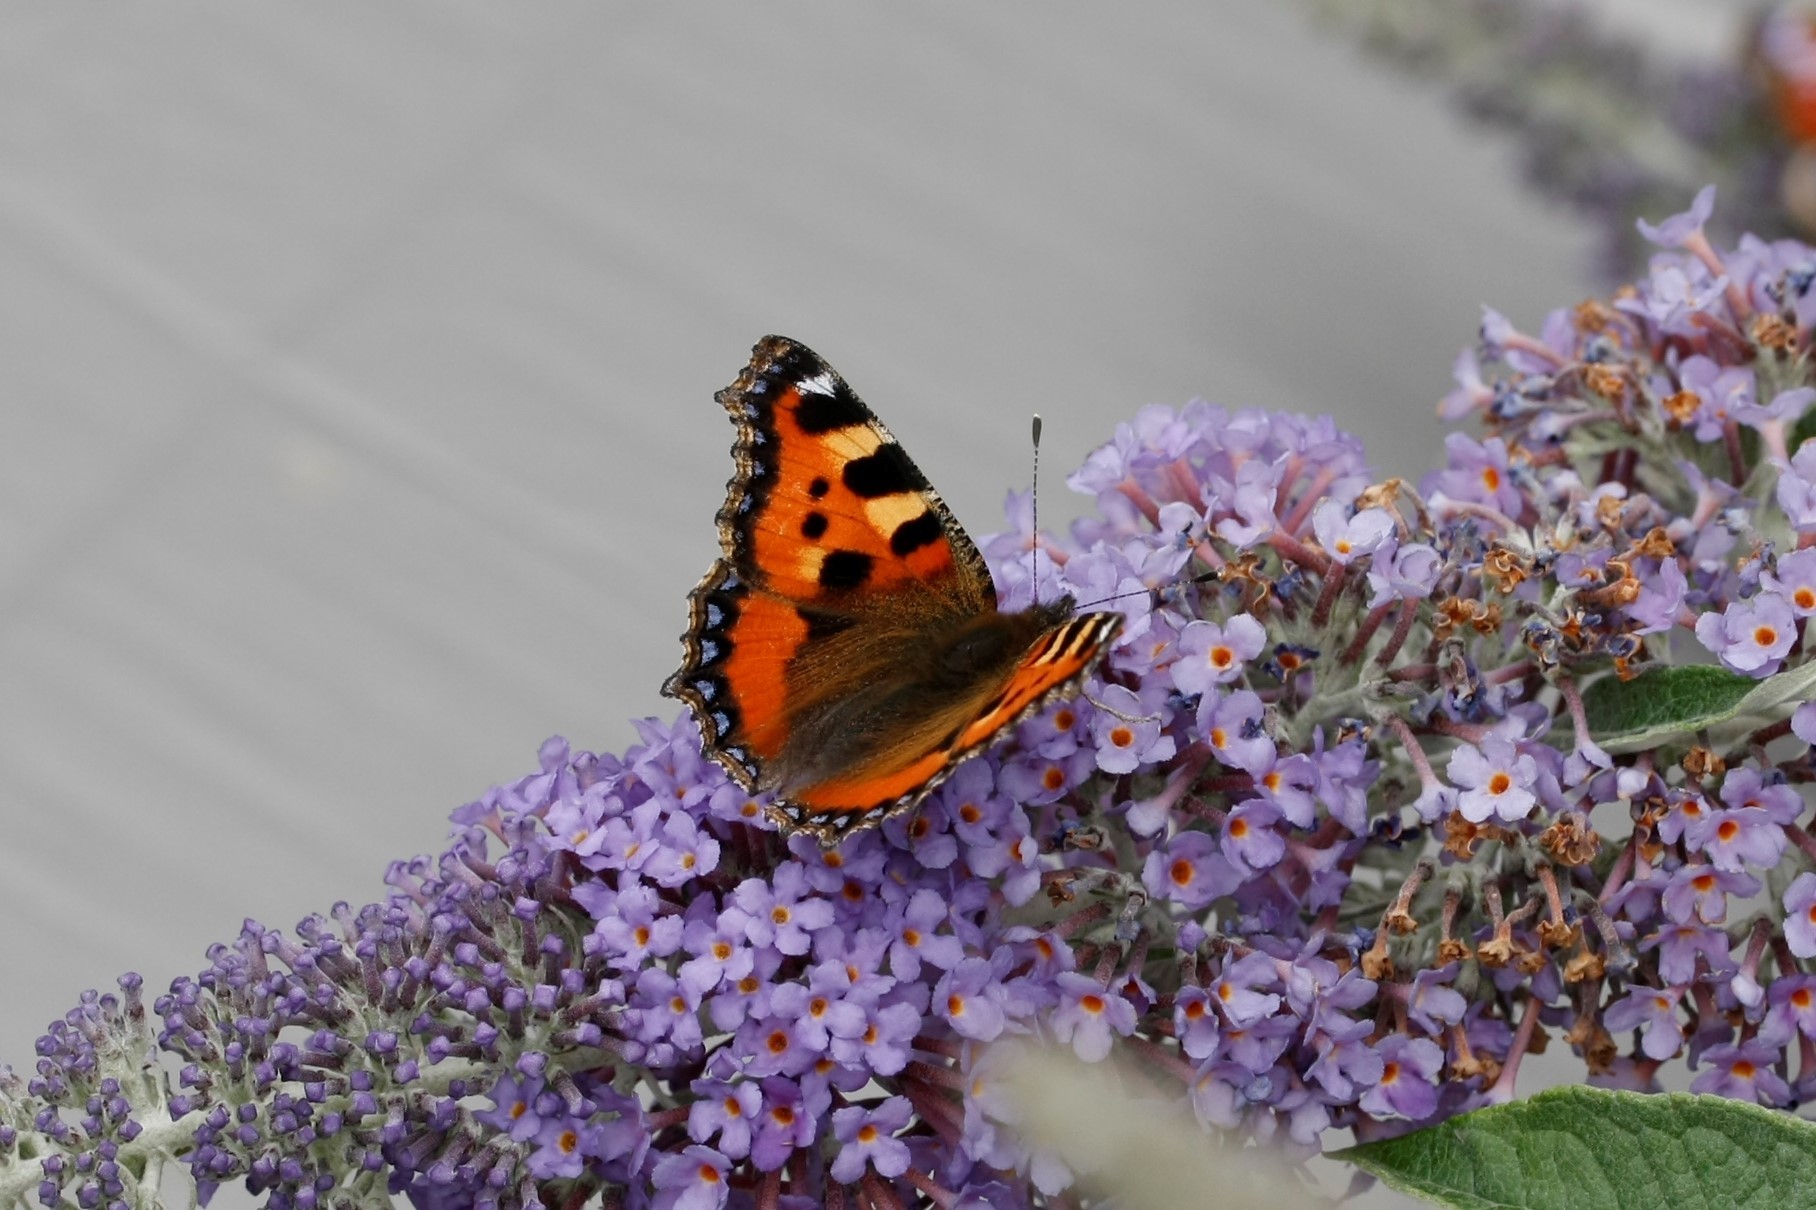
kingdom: Animalia
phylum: Arthropoda
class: Insecta
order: Lepidoptera
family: Nymphalidae
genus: Aglais
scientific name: Aglais urticae
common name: Small tortoiseshell
